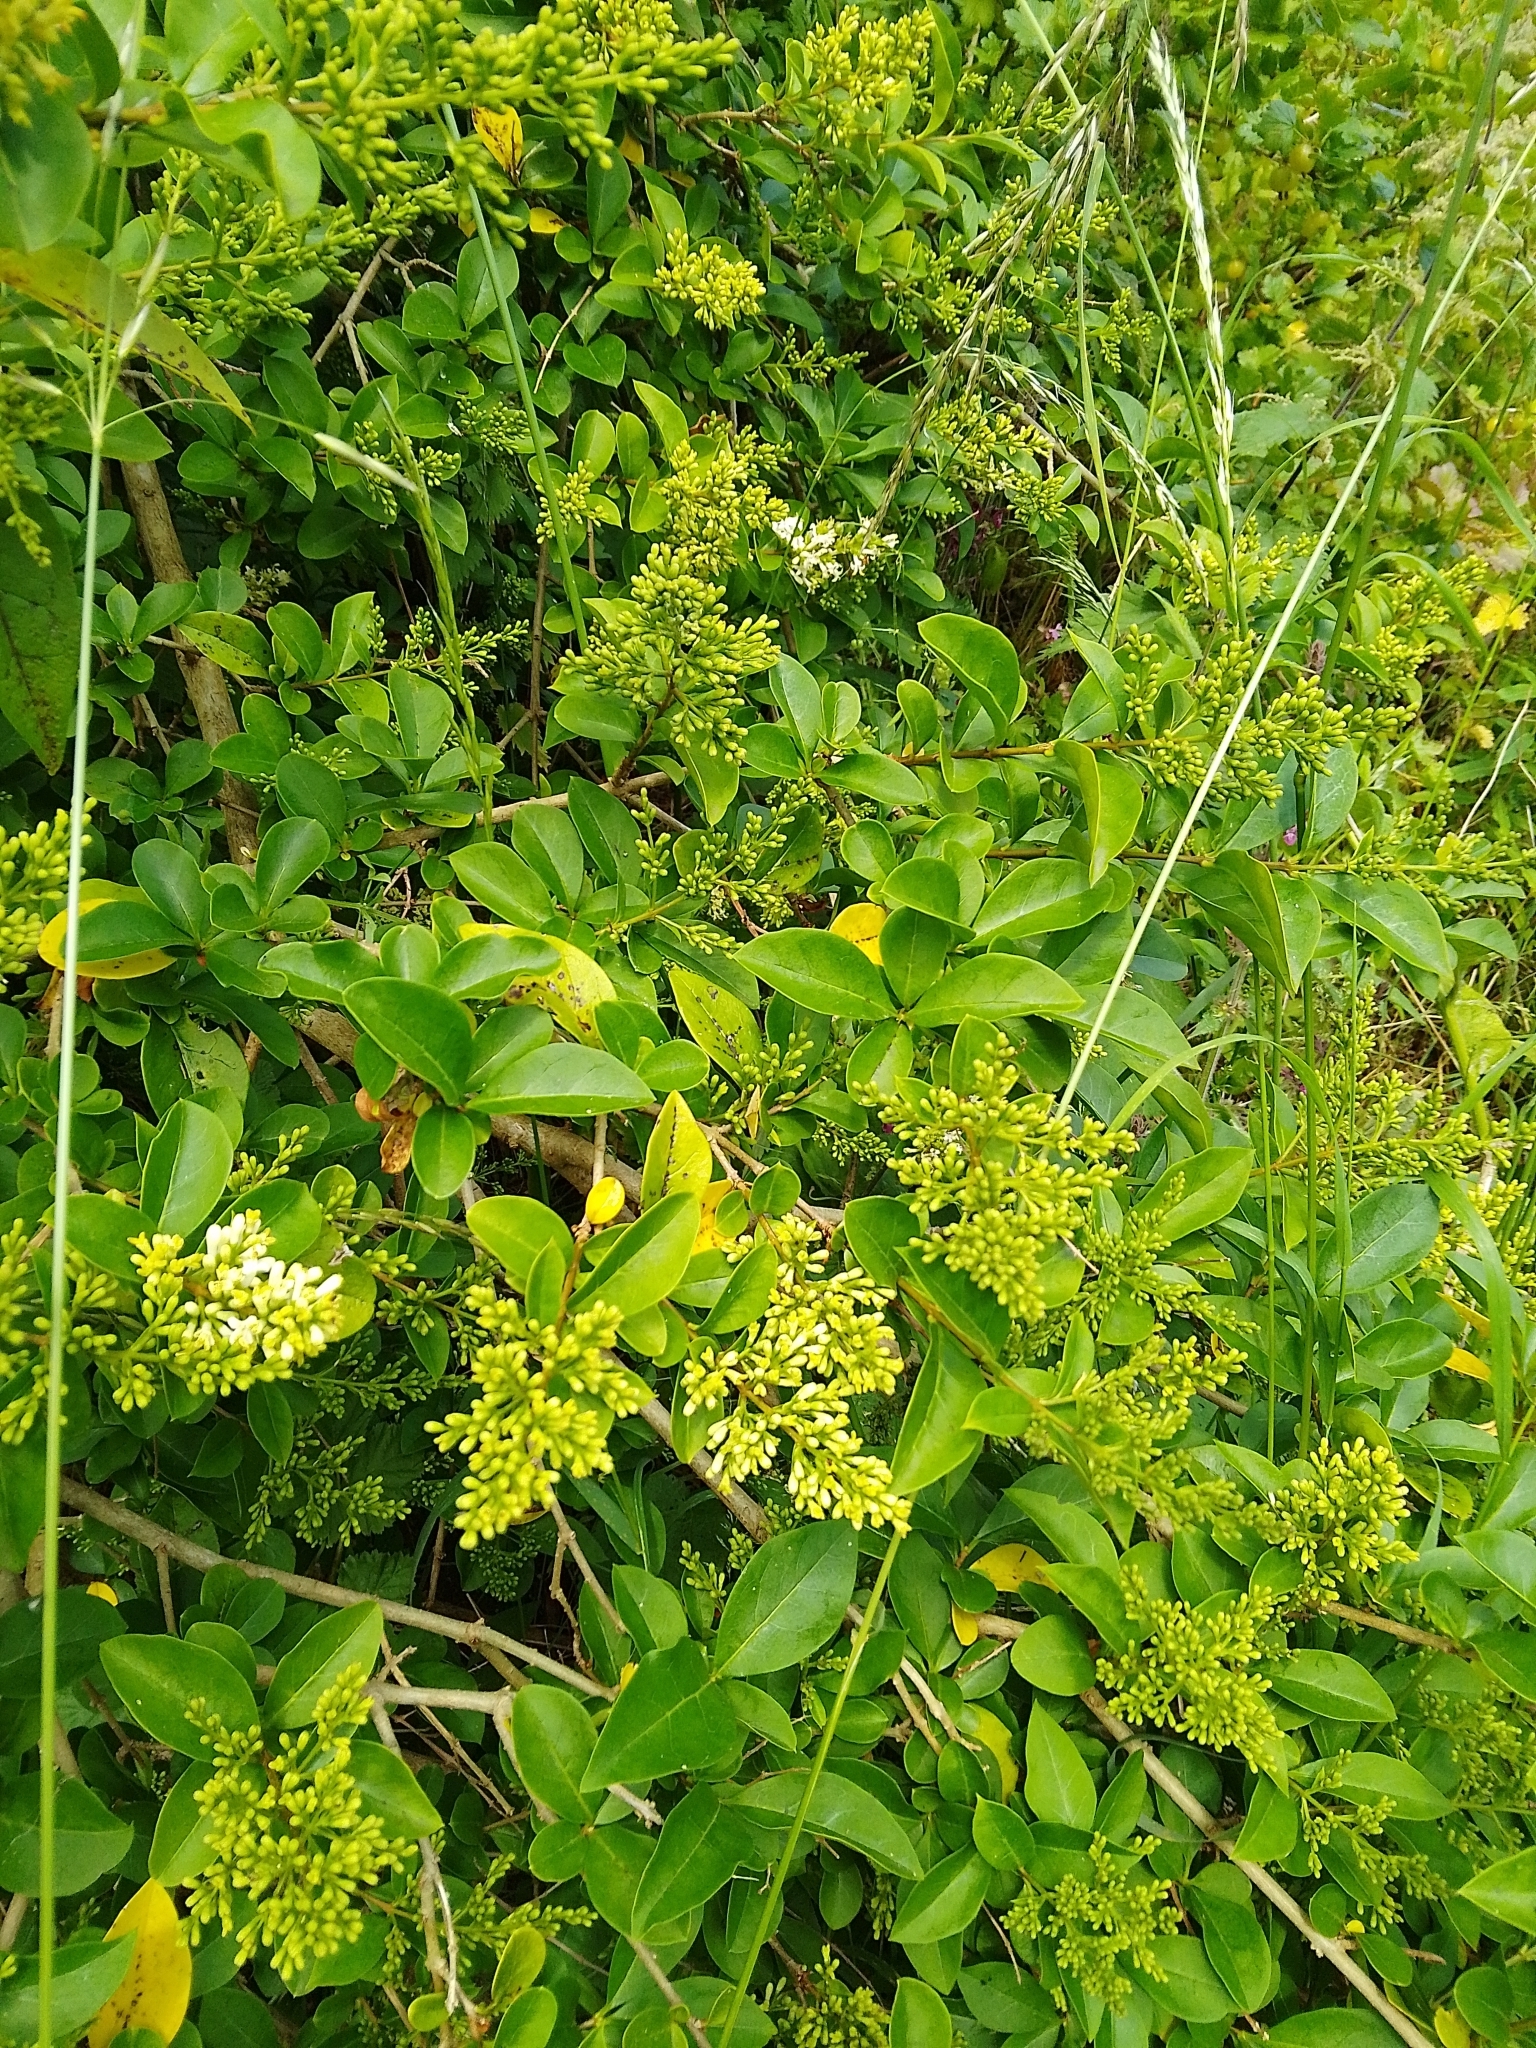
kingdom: Plantae
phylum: Tracheophyta
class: Magnoliopsida
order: Lamiales
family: Oleaceae
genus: Ligustrum
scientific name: Ligustrum ovalifolium
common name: California privet
